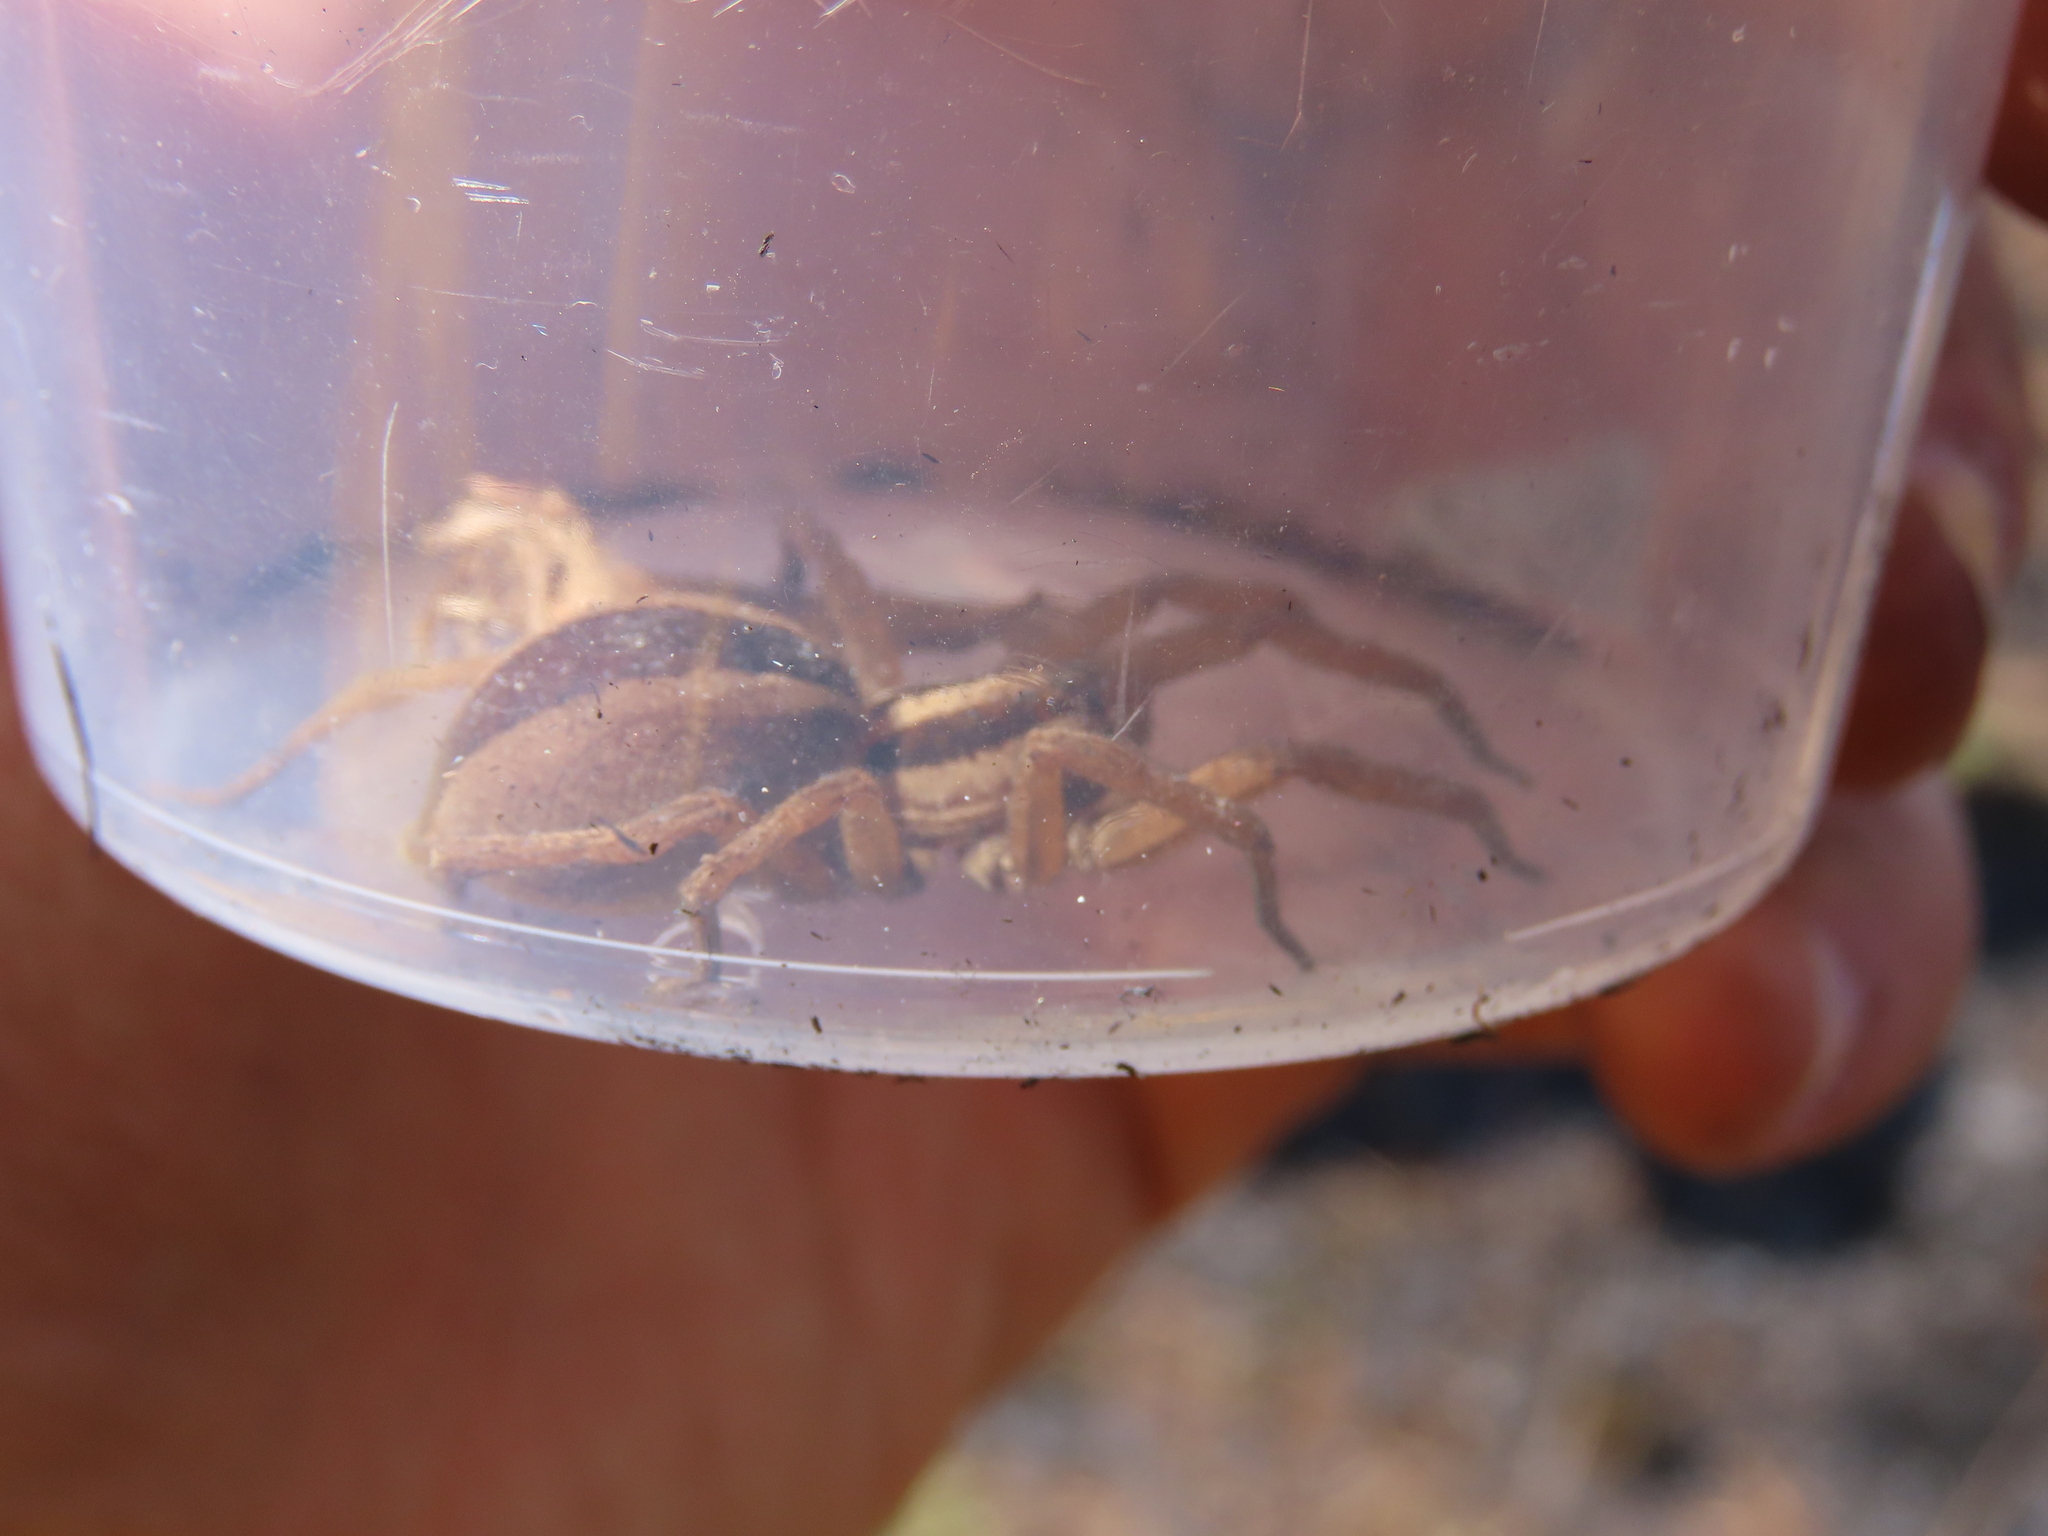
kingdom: Animalia
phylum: Arthropoda
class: Arachnida
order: Araneae
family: Lycosidae
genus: Rabidosa
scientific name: Rabidosa punctulata
